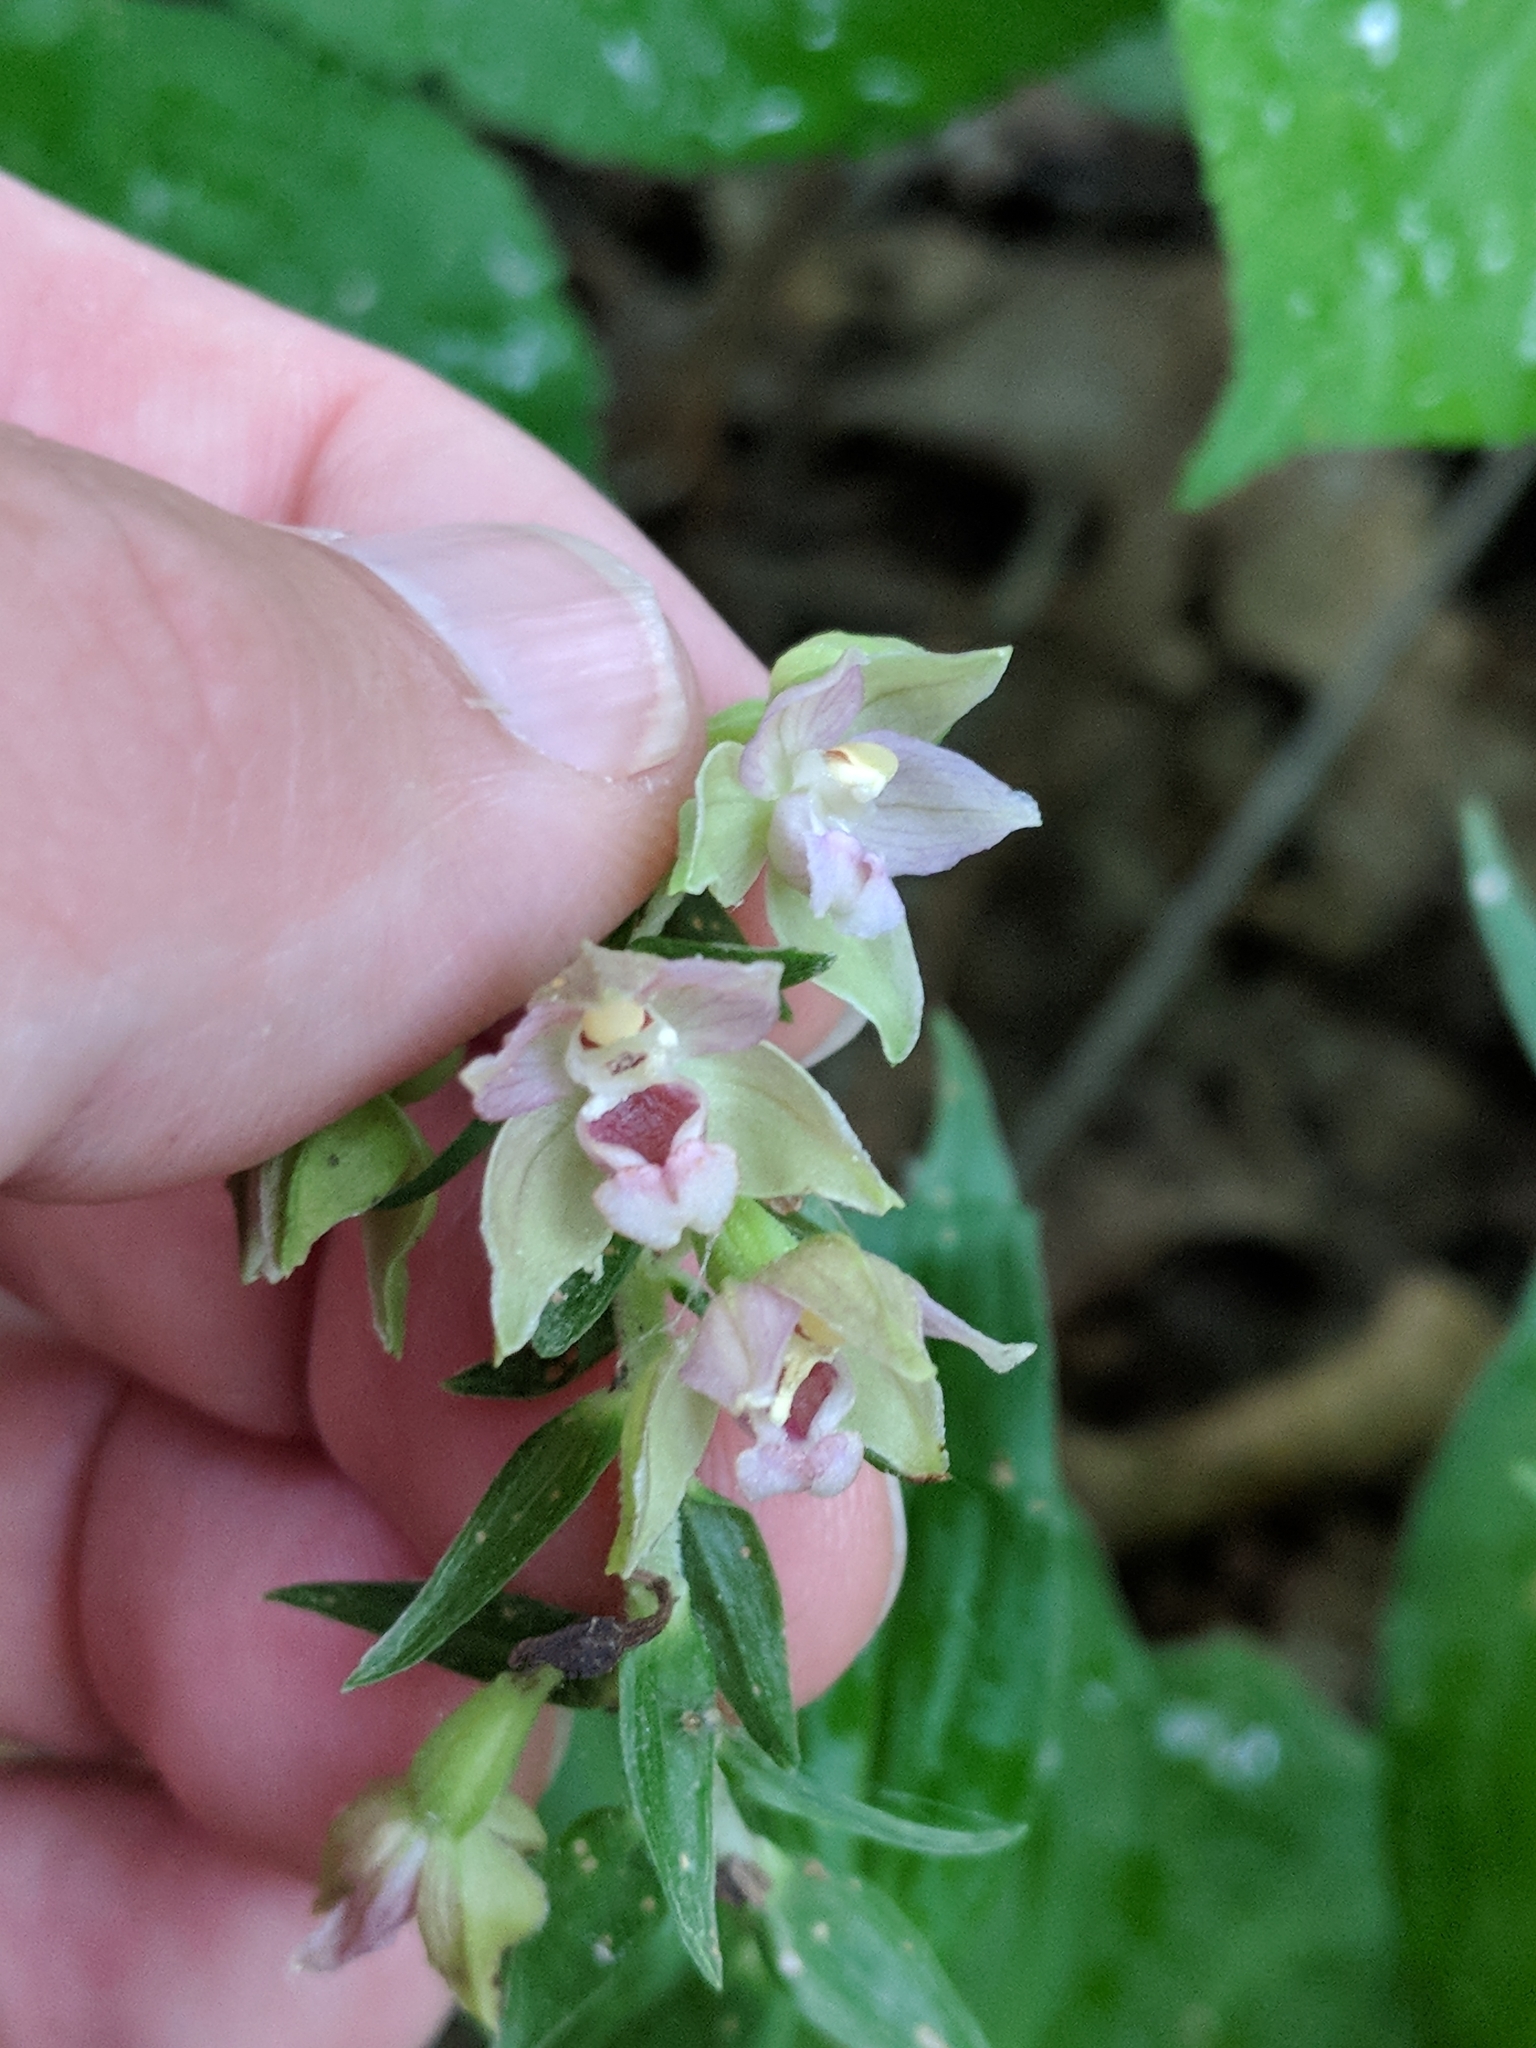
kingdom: Plantae
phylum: Tracheophyta
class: Liliopsida
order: Asparagales
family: Orchidaceae
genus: Epipactis
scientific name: Epipactis helleborine
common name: Broad-leaved helleborine
